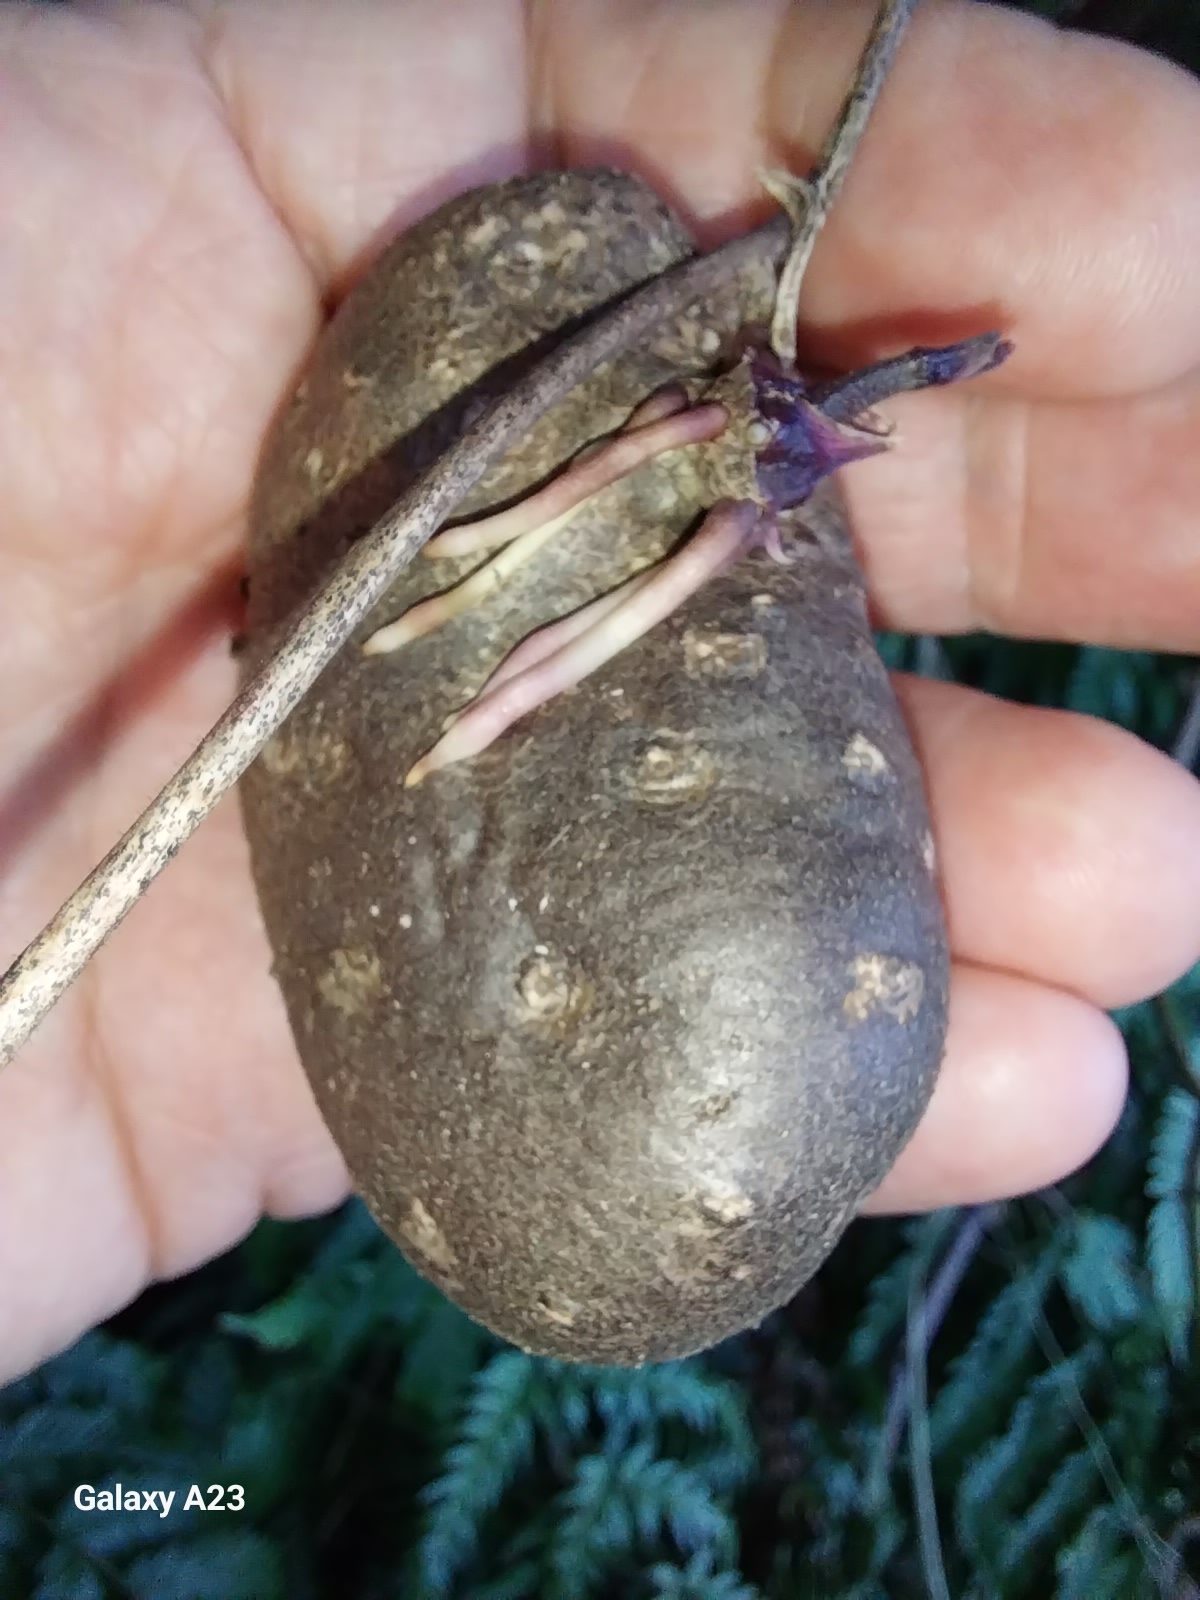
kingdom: Plantae
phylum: Tracheophyta
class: Liliopsida
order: Dioscoreales
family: Dioscoreaceae
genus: Dioscorea
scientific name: Dioscorea bulbifera
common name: Air yam
